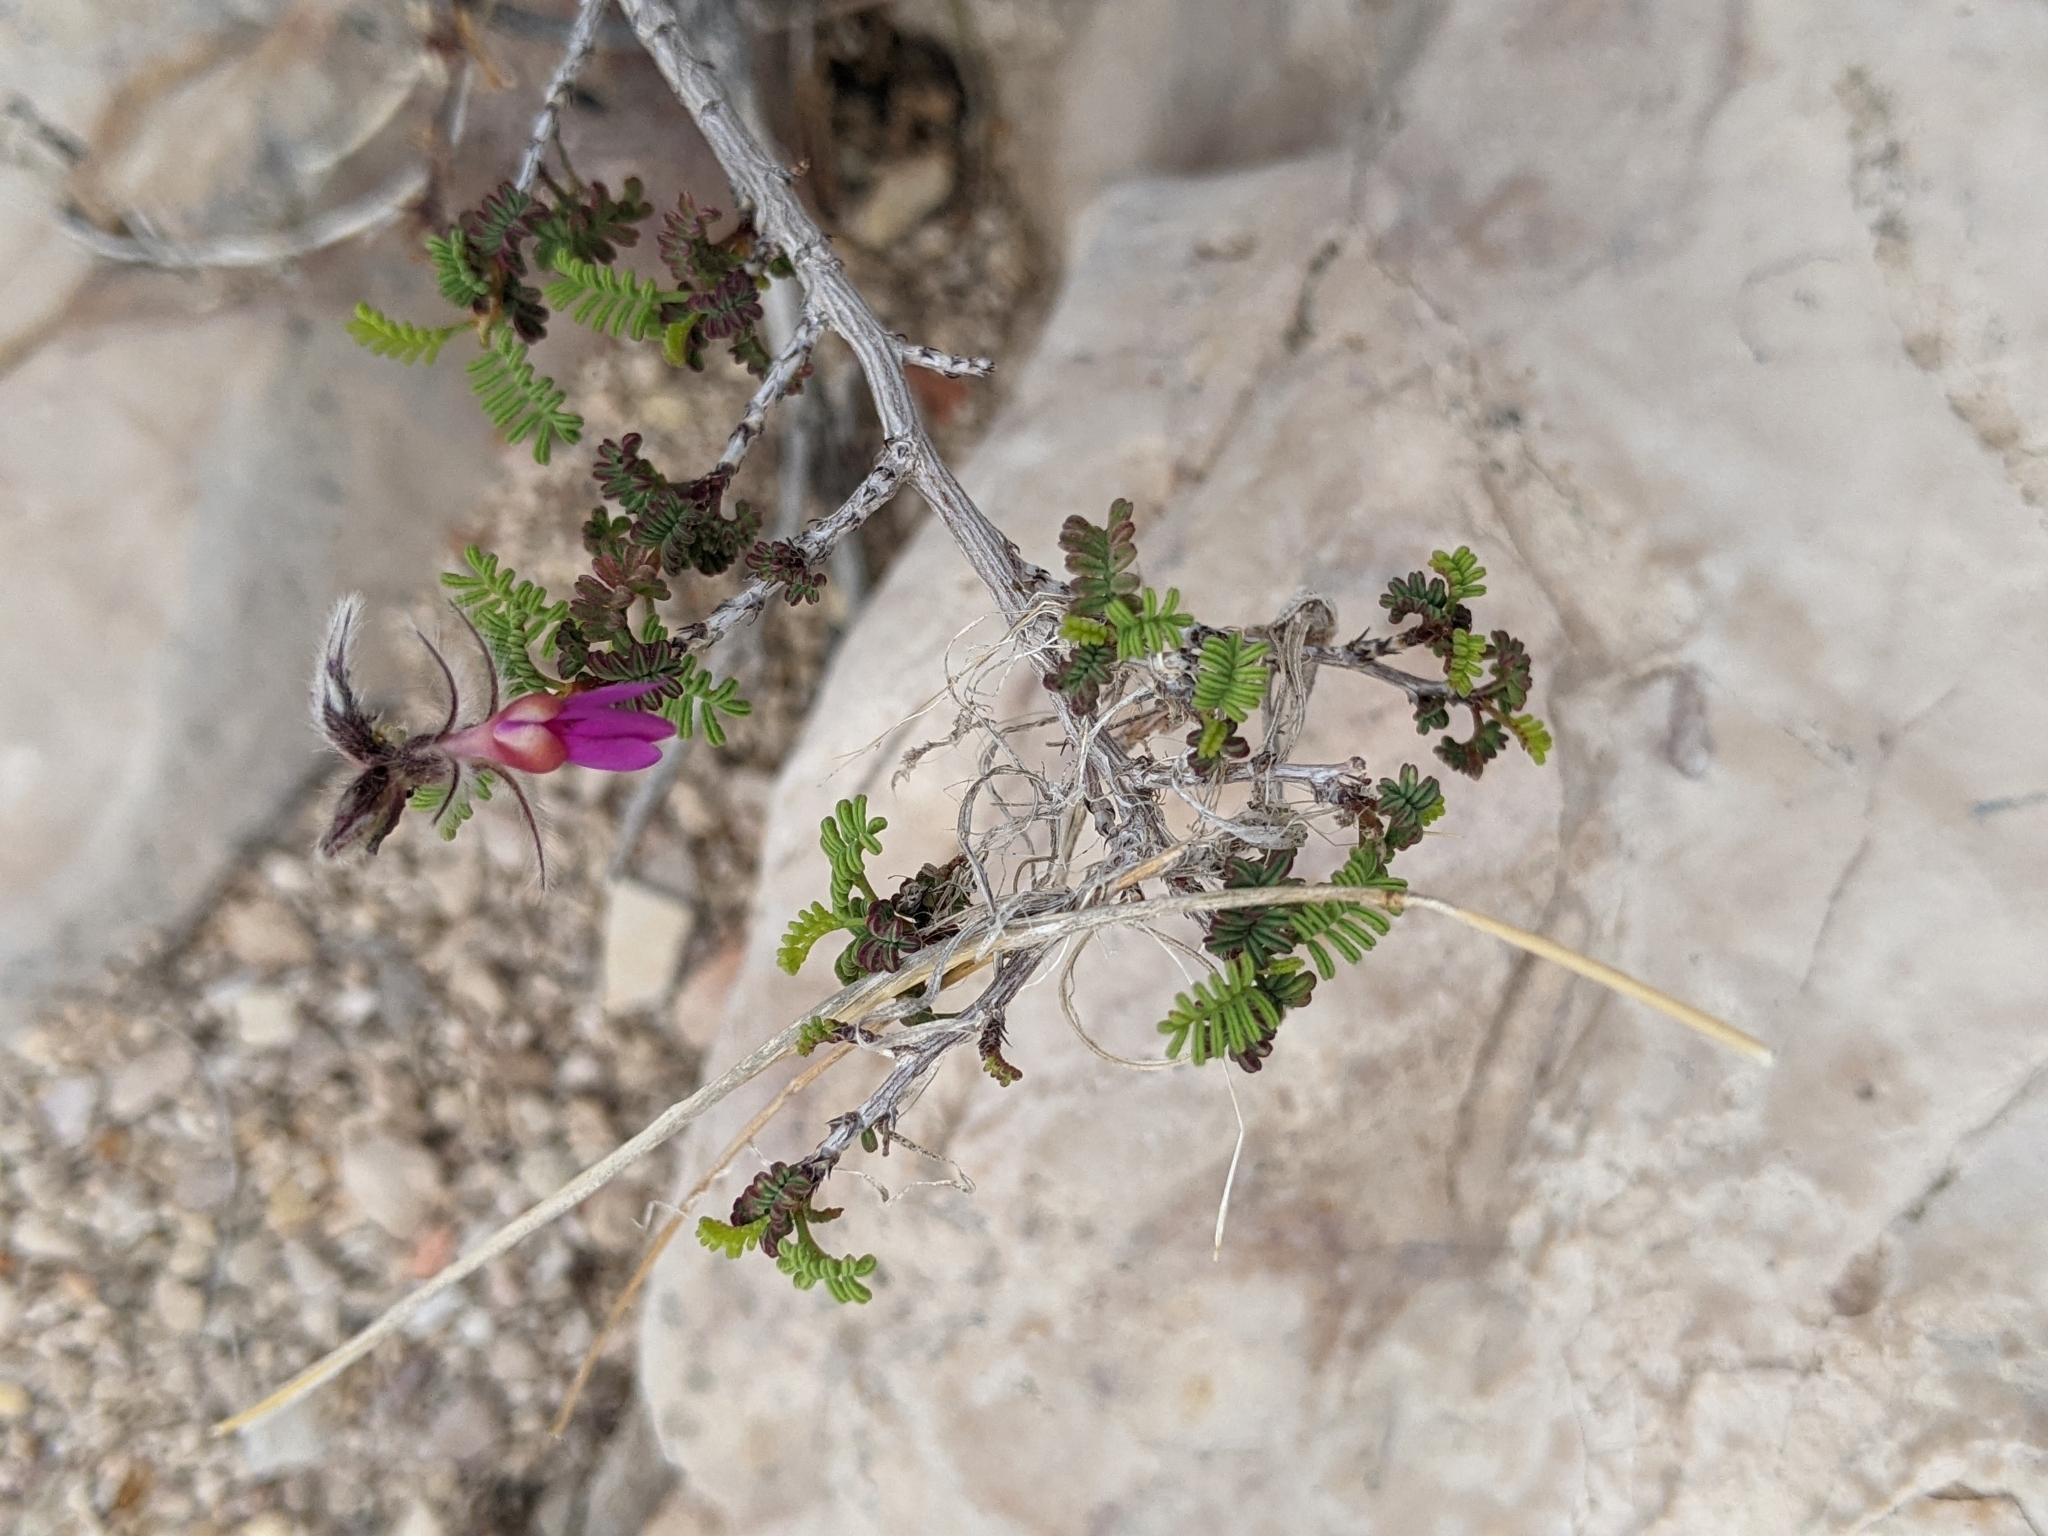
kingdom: Plantae
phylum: Tracheophyta
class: Magnoliopsida
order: Fabales
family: Fabaceae
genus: Dalea
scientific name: Dalea formosa
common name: Feather-plume dalea
